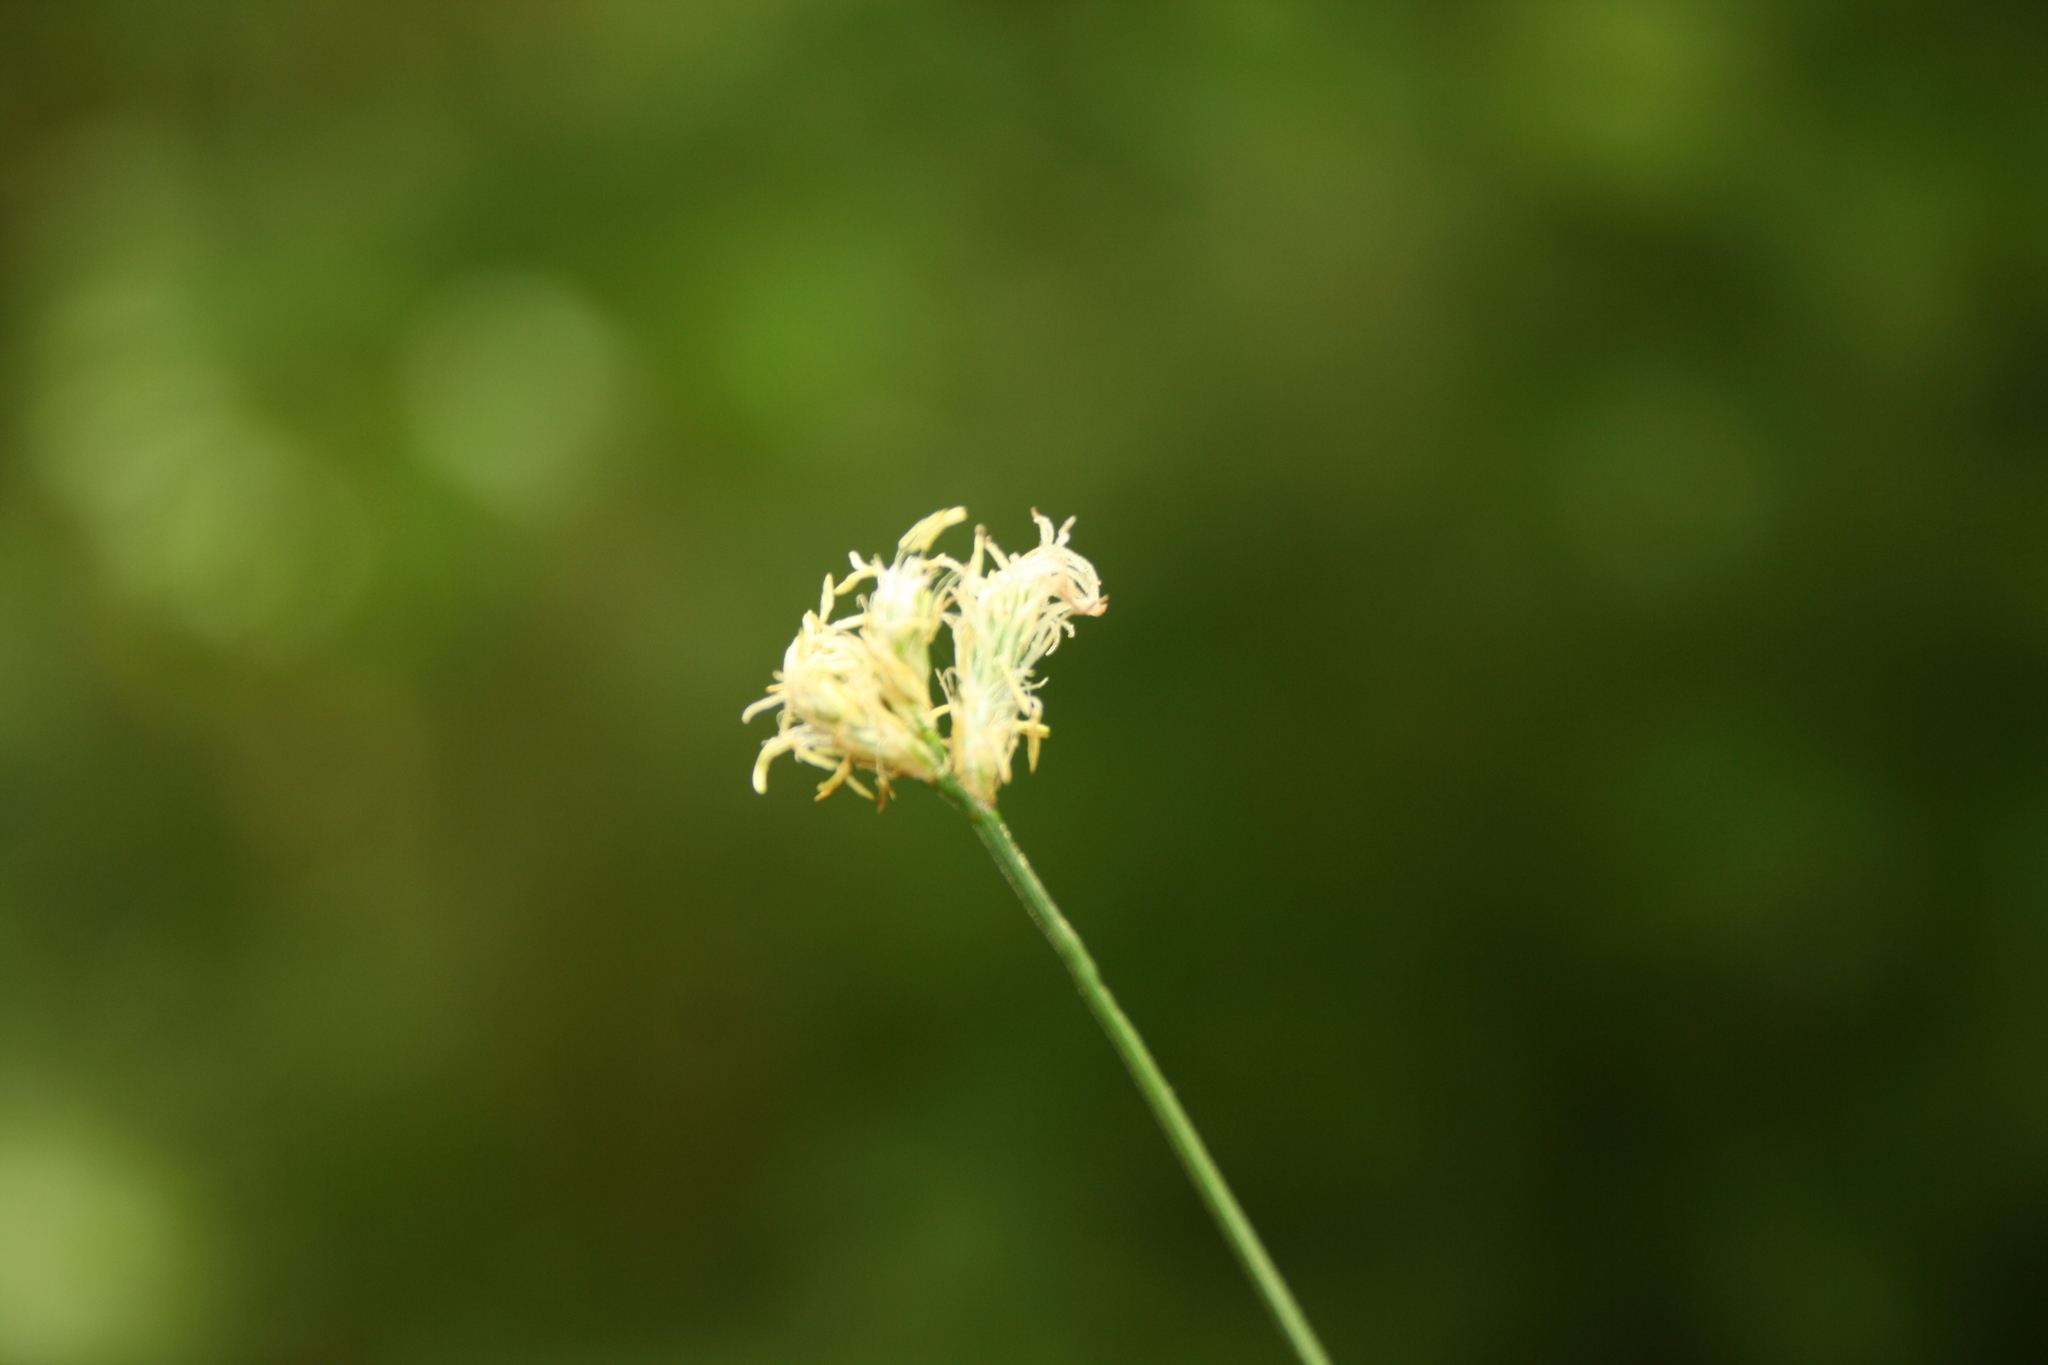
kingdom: Plantae
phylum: Tracheophyta
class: Liliopsida
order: Poales
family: Cyperaceae
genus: Carex
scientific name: Carex brizoides
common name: Quaking-grass sedge
